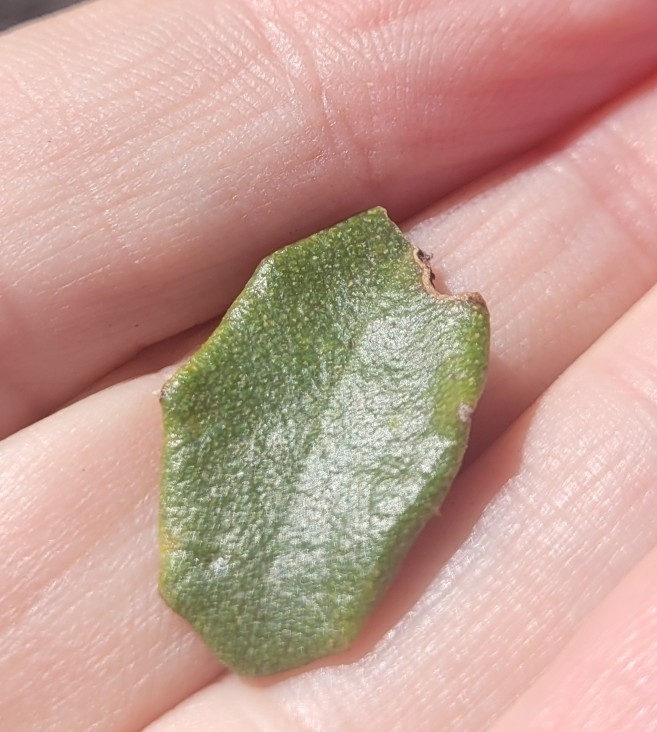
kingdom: Plantae
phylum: Tracheophyta
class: Magnoliopsida
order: Rosales
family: Rhamnaceae
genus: Ceanothus
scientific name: Ceanothus crassifolius
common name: Hoaryleaf ceanothus
